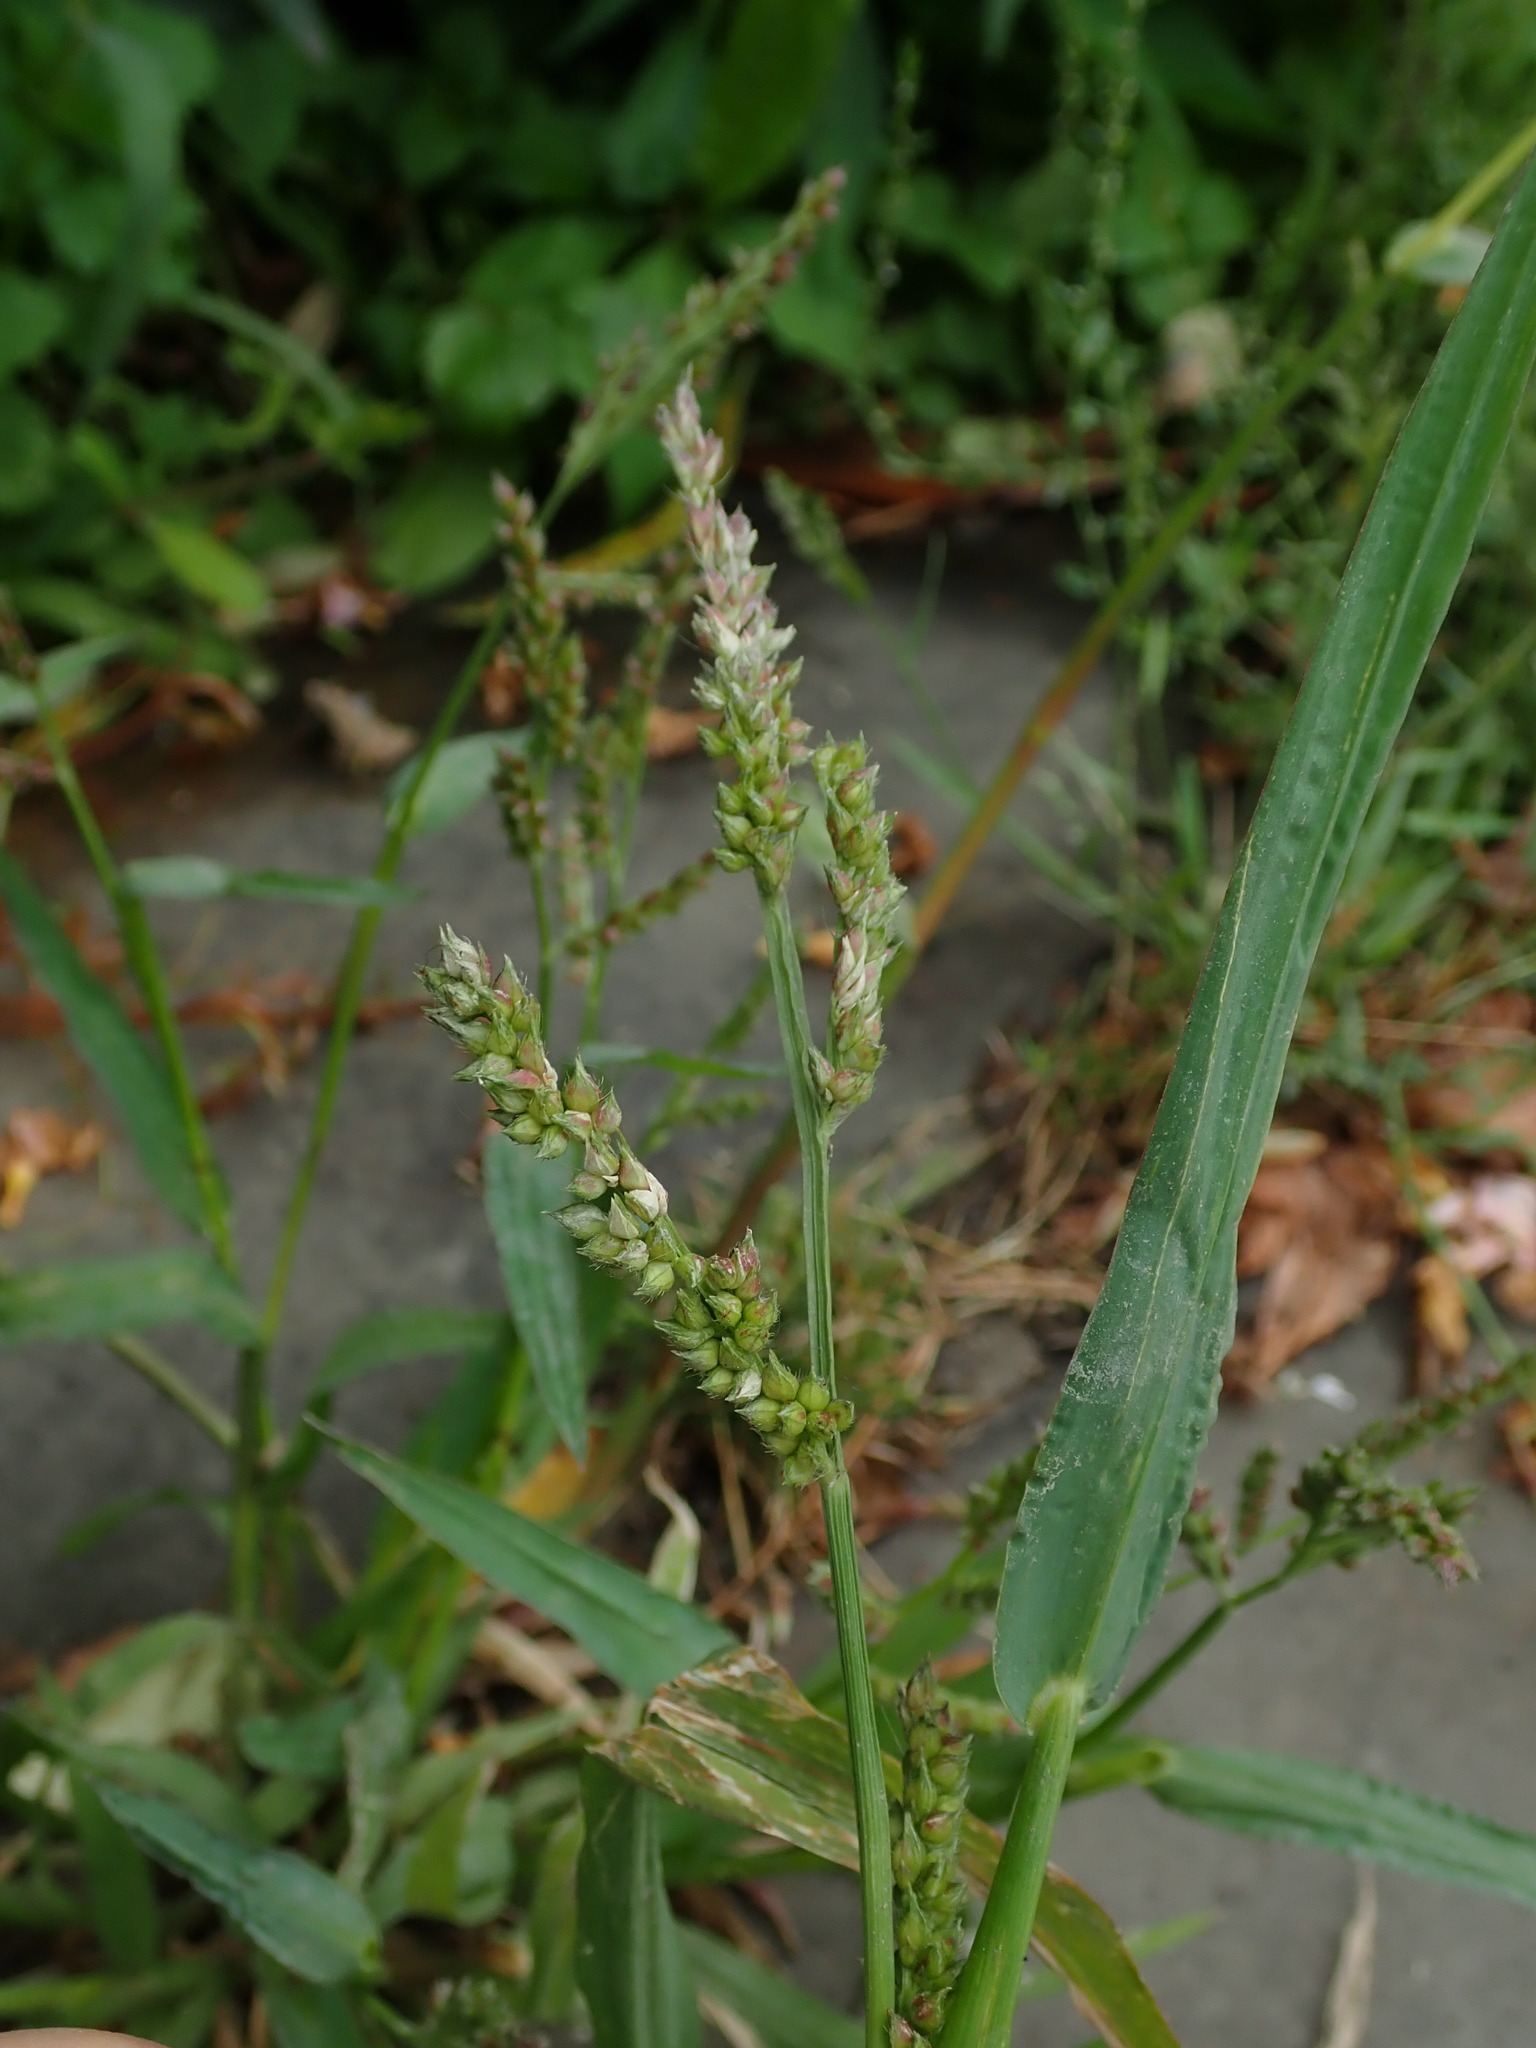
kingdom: Plantae
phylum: Tracheophyta
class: Liliopsida
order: Poales
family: Poaceae
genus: Echinochloa
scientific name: Echinochloa crus-galli
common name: Cockspur
